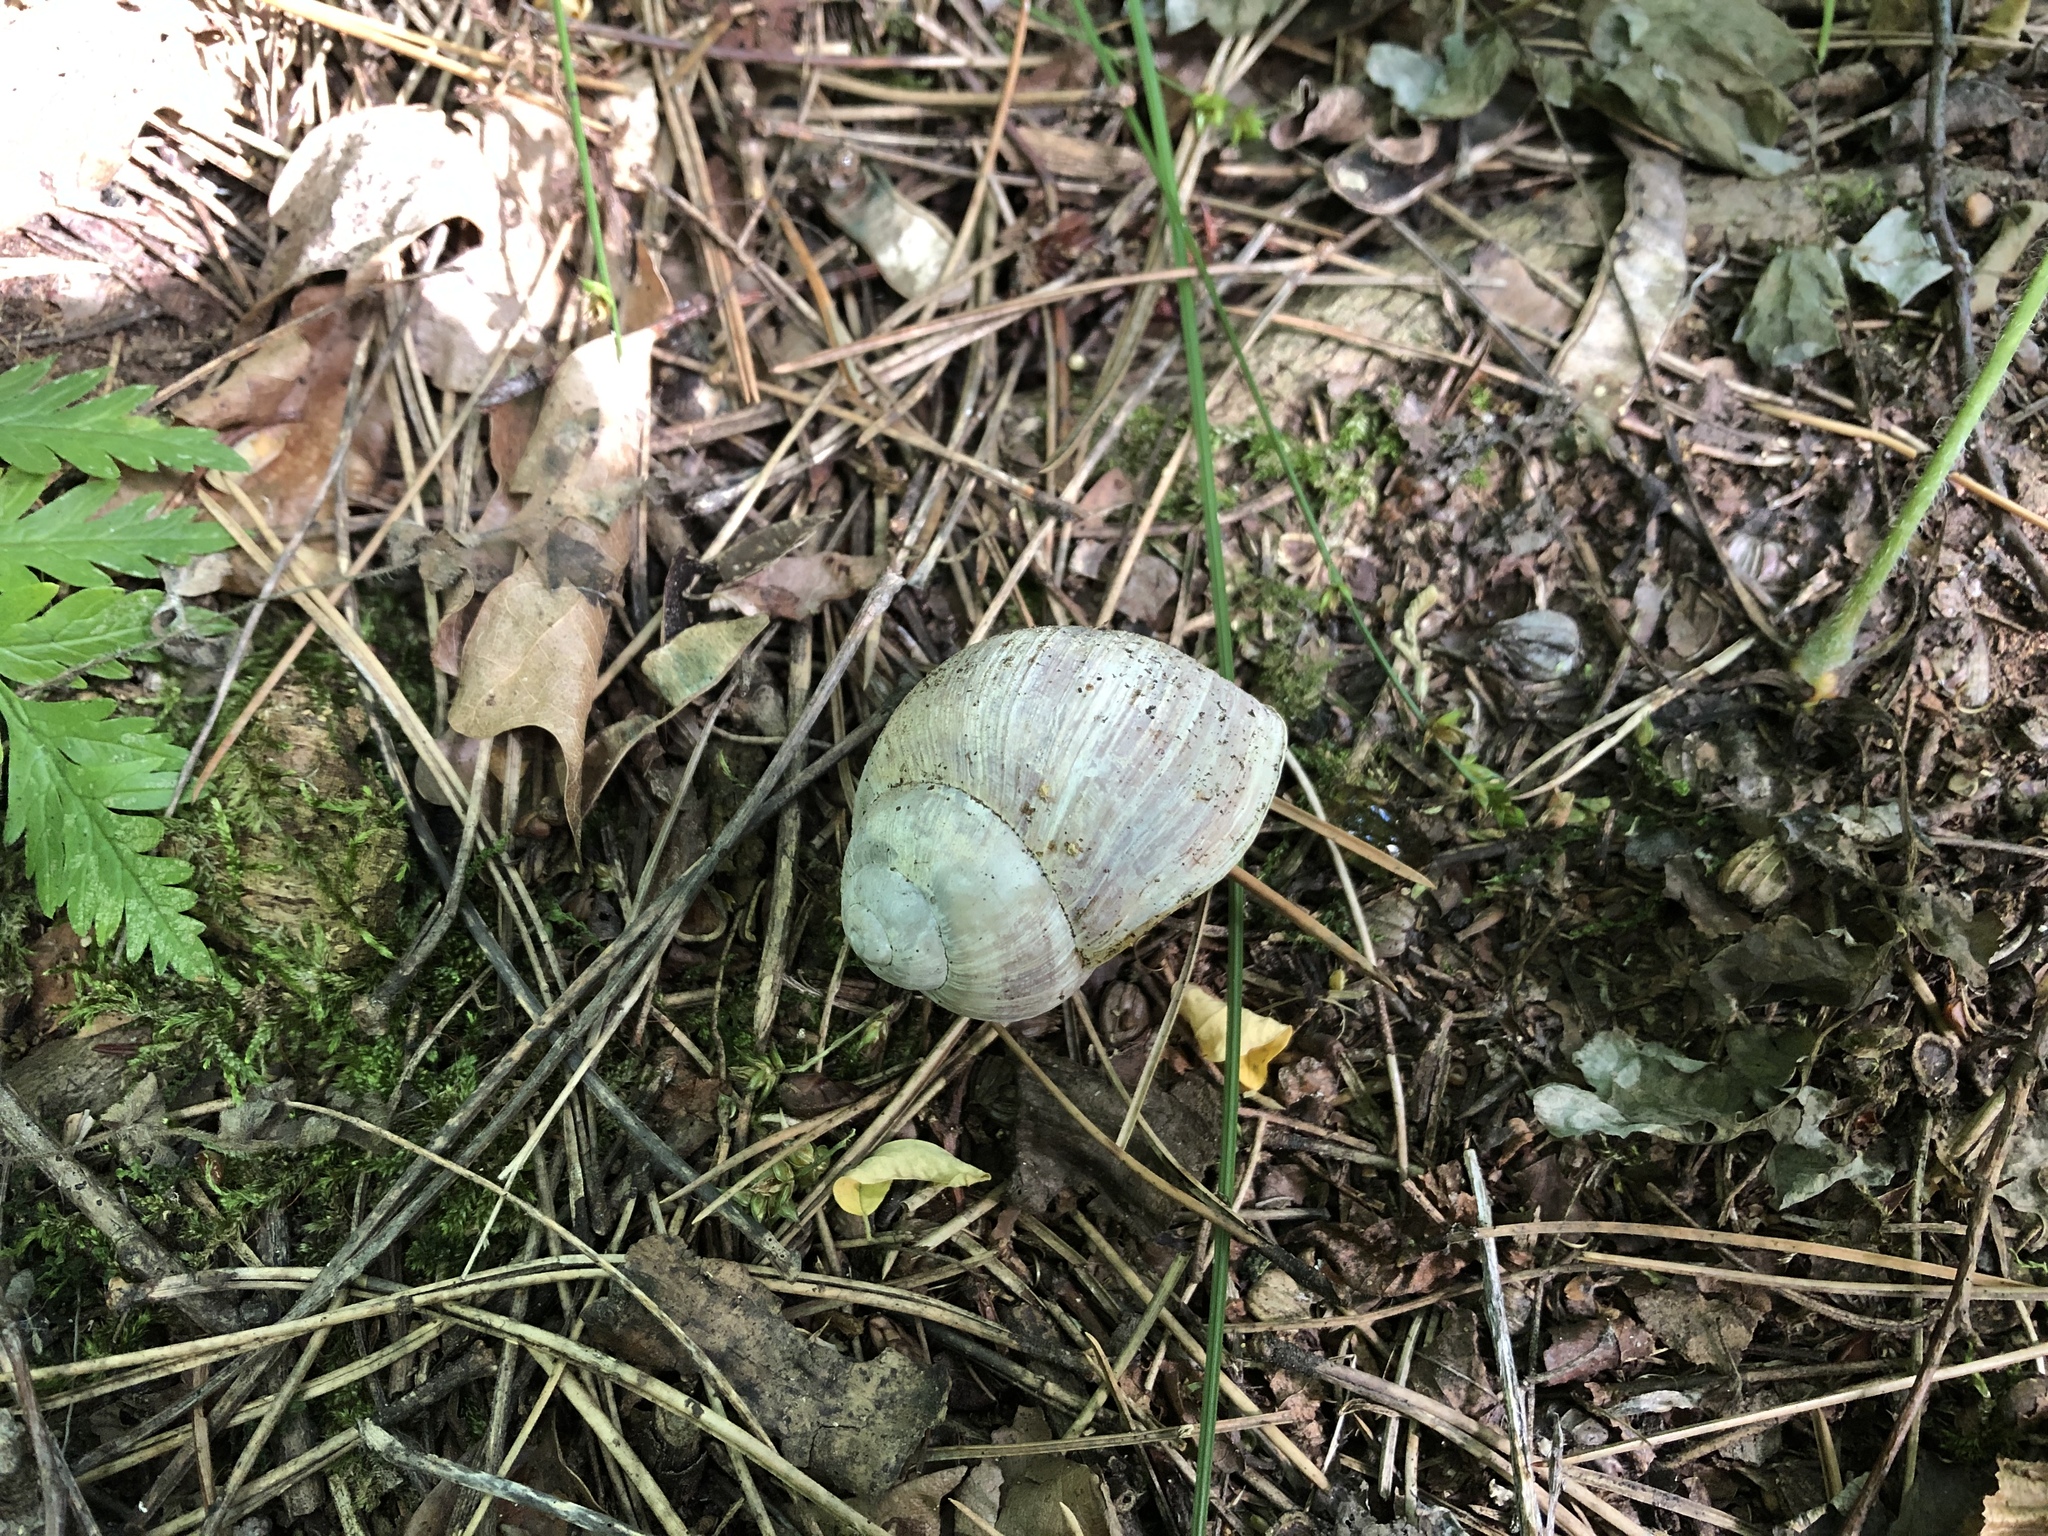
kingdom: Animalia
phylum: Mollusca
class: Gastropoda
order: Stylommatophora
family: Helicidae
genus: Helix
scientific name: Helix pomatia
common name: Roman snail
